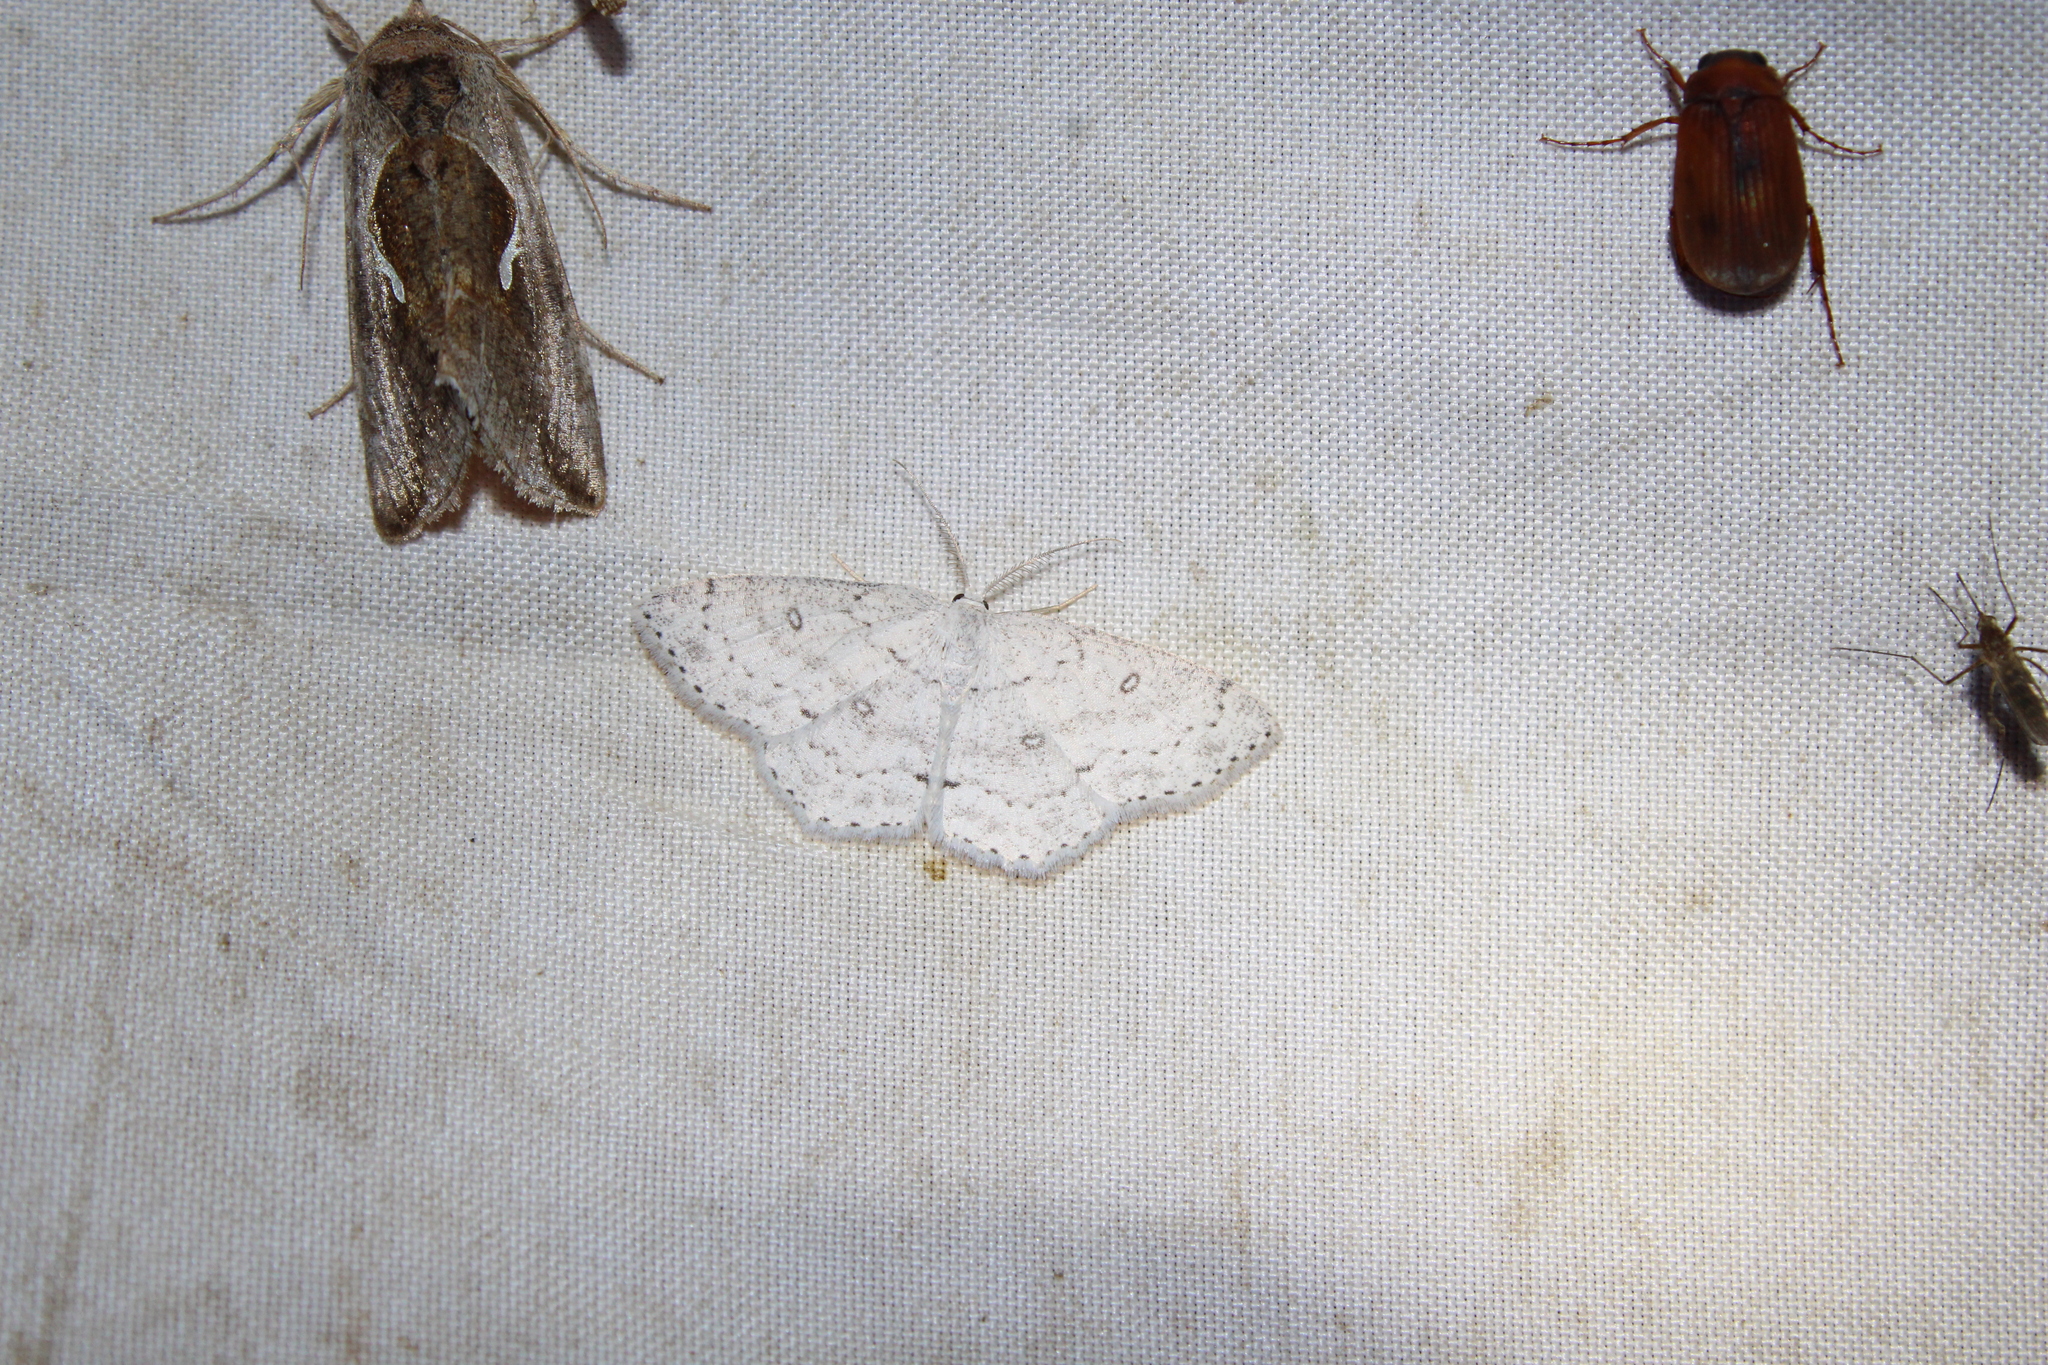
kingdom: Animalia
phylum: Arthropoda
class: Insecta
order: Lepidoptera
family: Geometridae
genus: Cyclophora
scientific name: Cyclophora pendulinaria
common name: Sweet fern geometer
